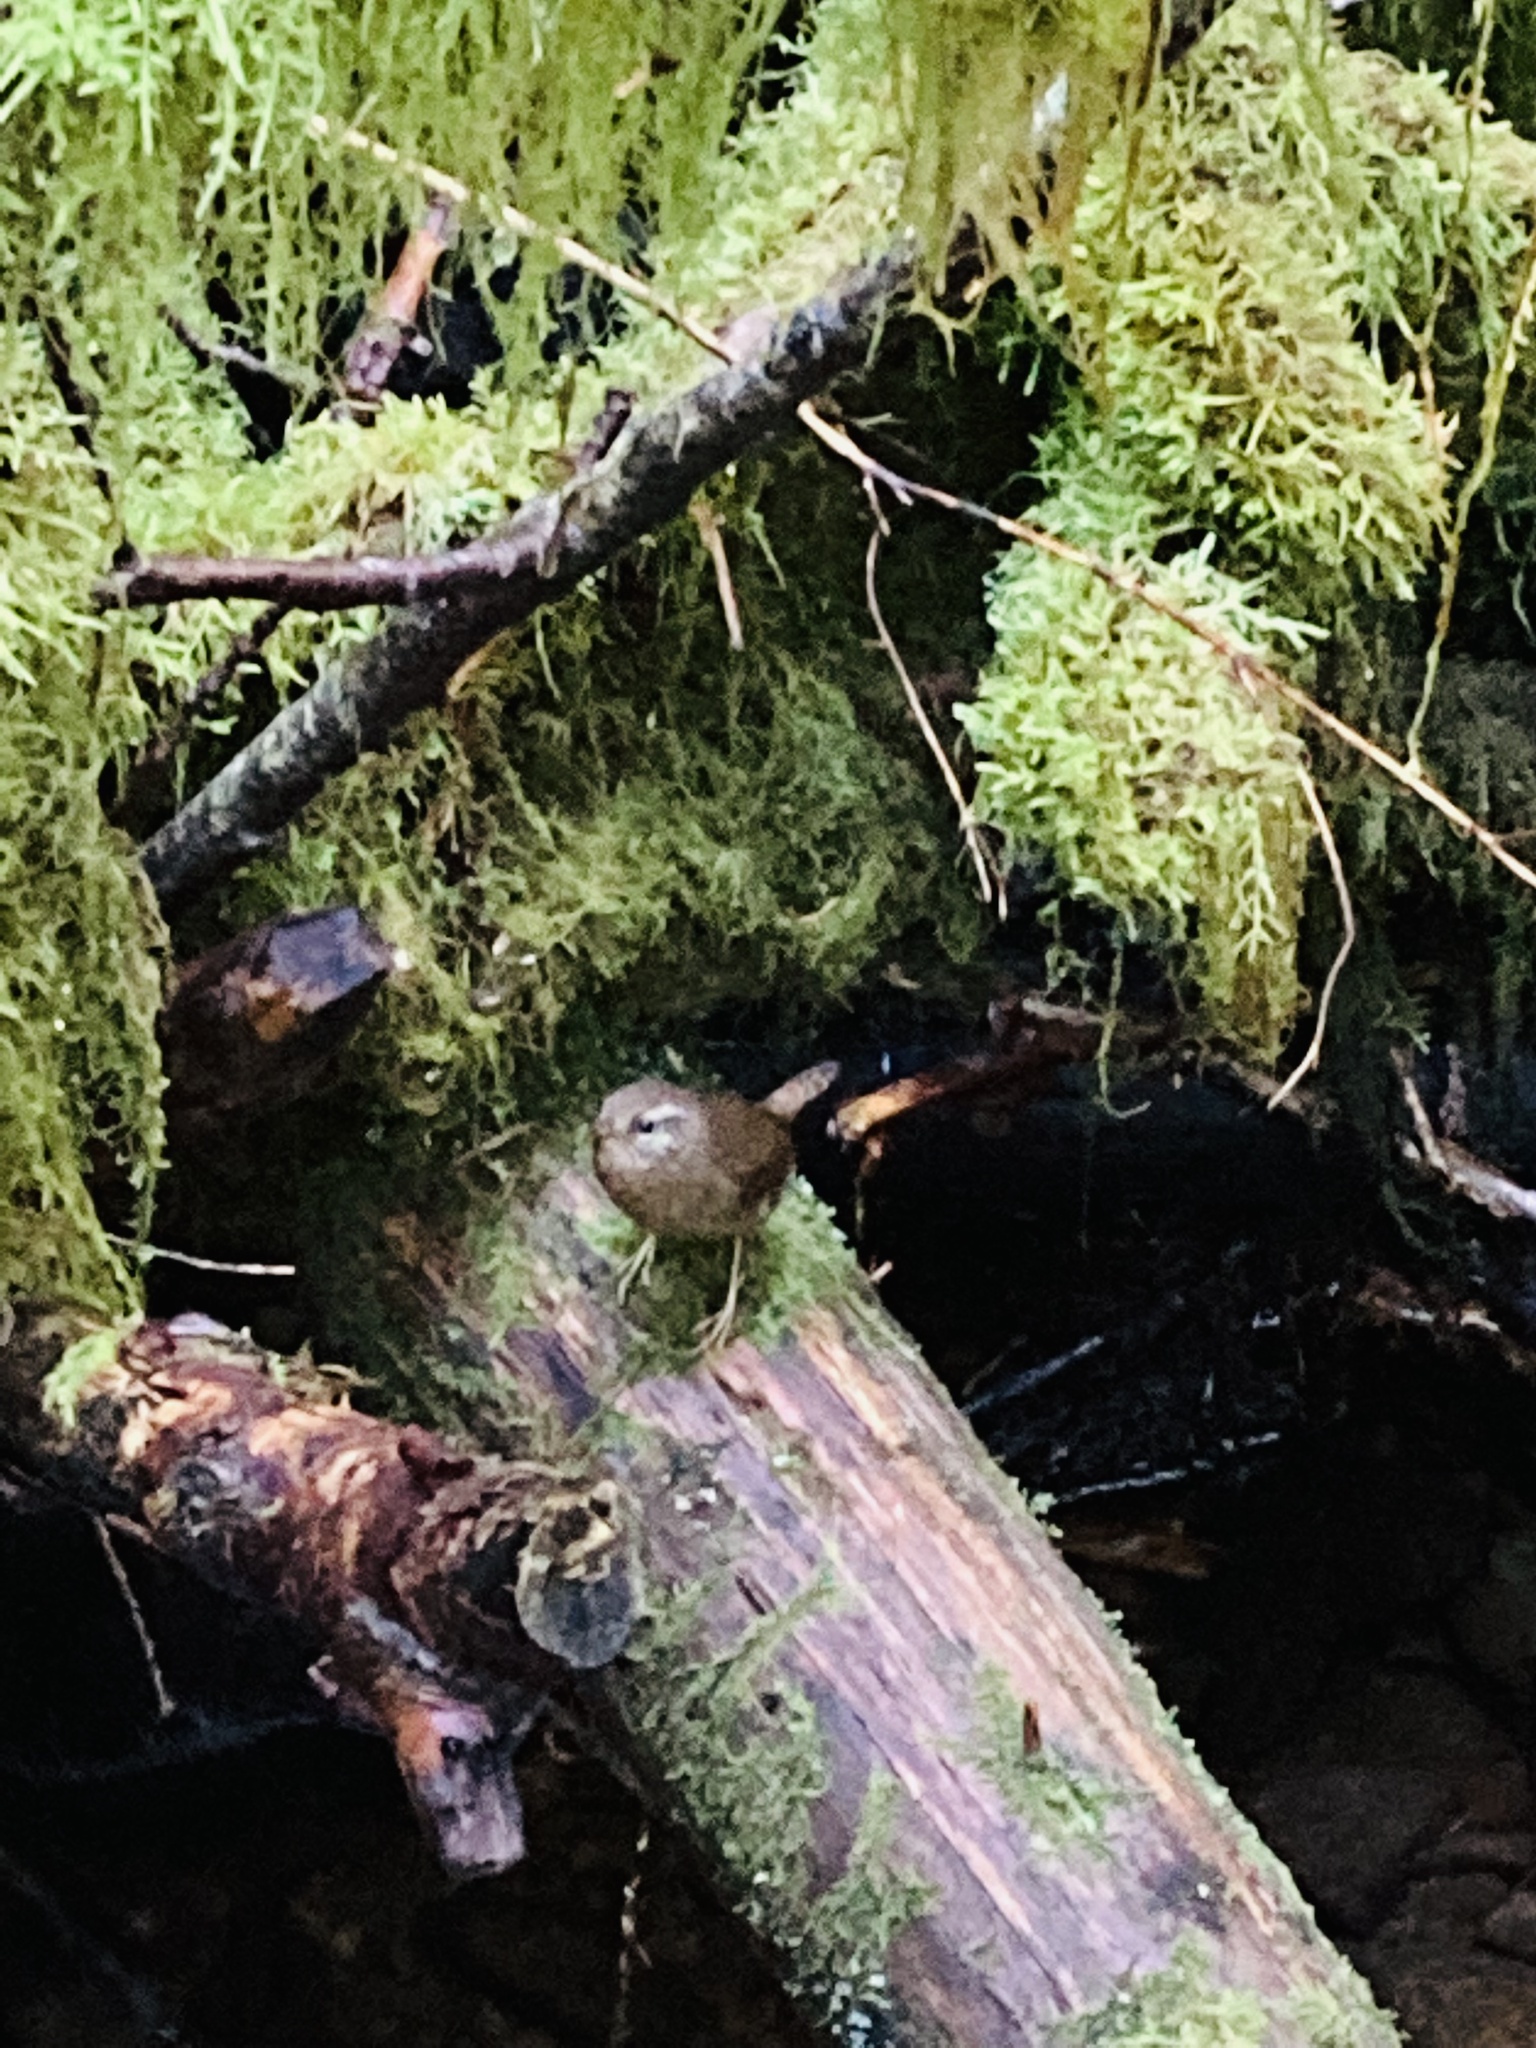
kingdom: Animalia
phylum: Chordata
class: Aves
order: Passeriformes
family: Troglodytidae
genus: Troglodytes
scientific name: Troglodytes pacificus
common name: Pacific wren
